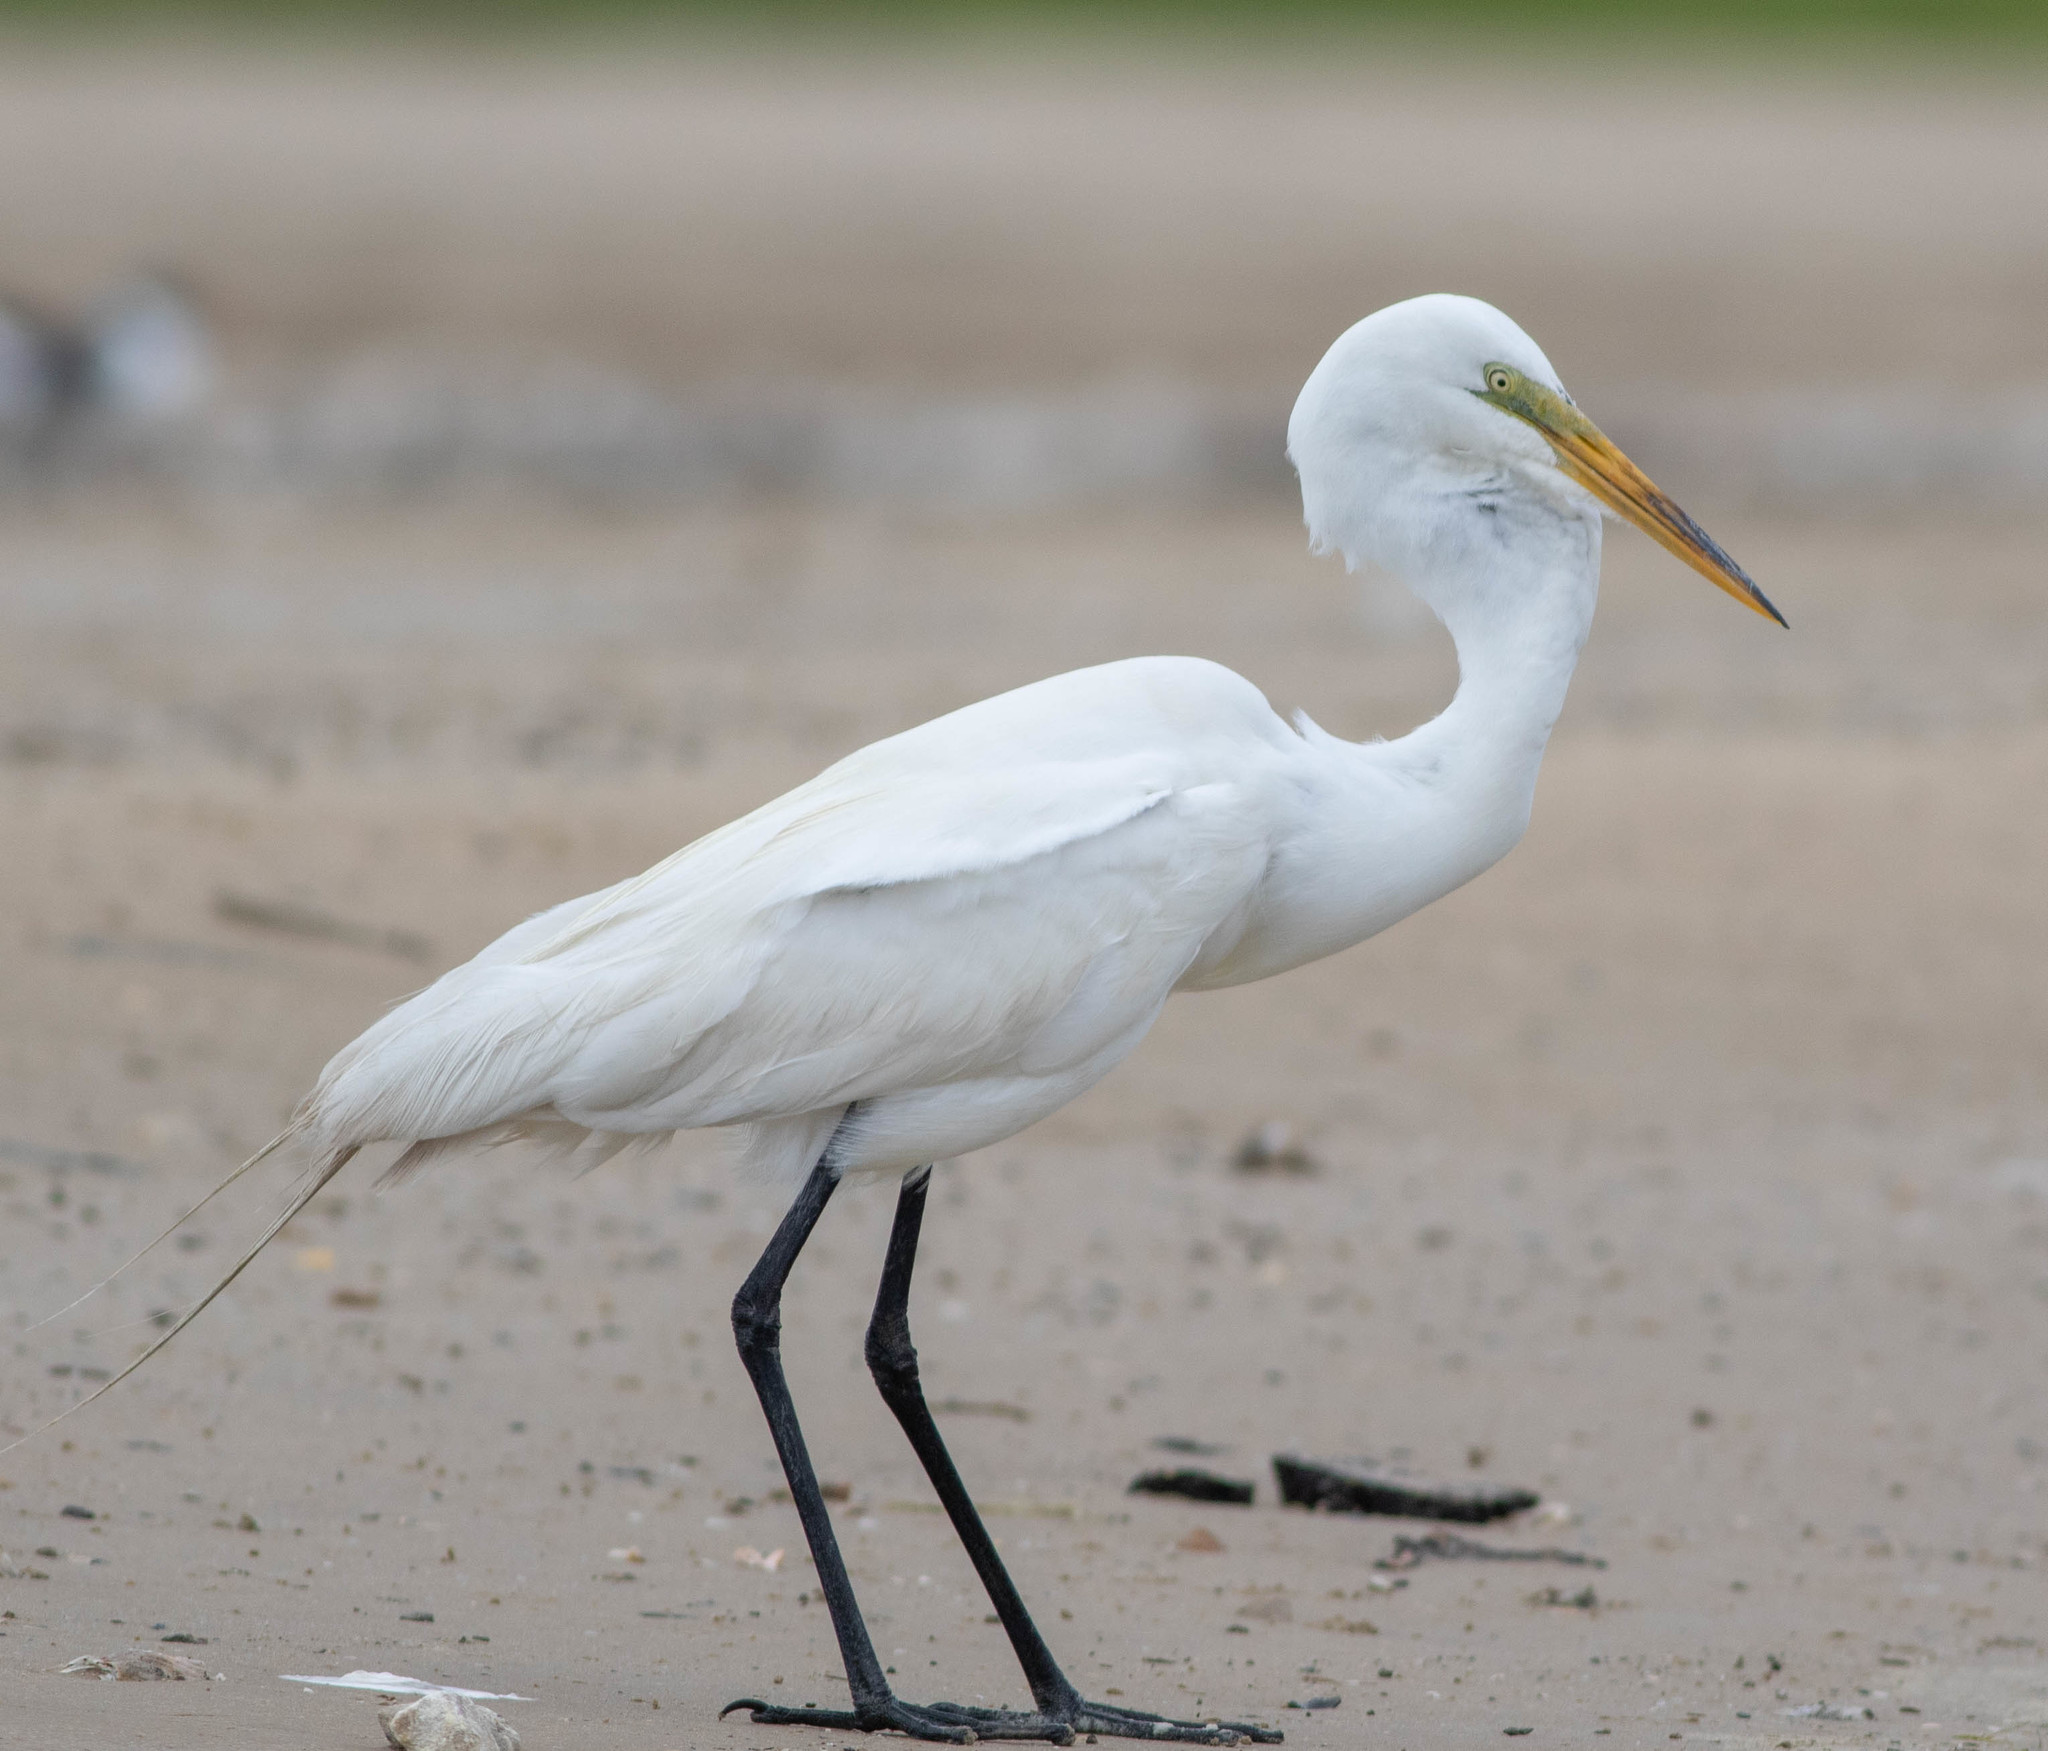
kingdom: Animalia
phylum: Chordata
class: Aves
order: Pelecaniformes
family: Ardeidae
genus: Ardea
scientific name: Ardea alba
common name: Great egret
